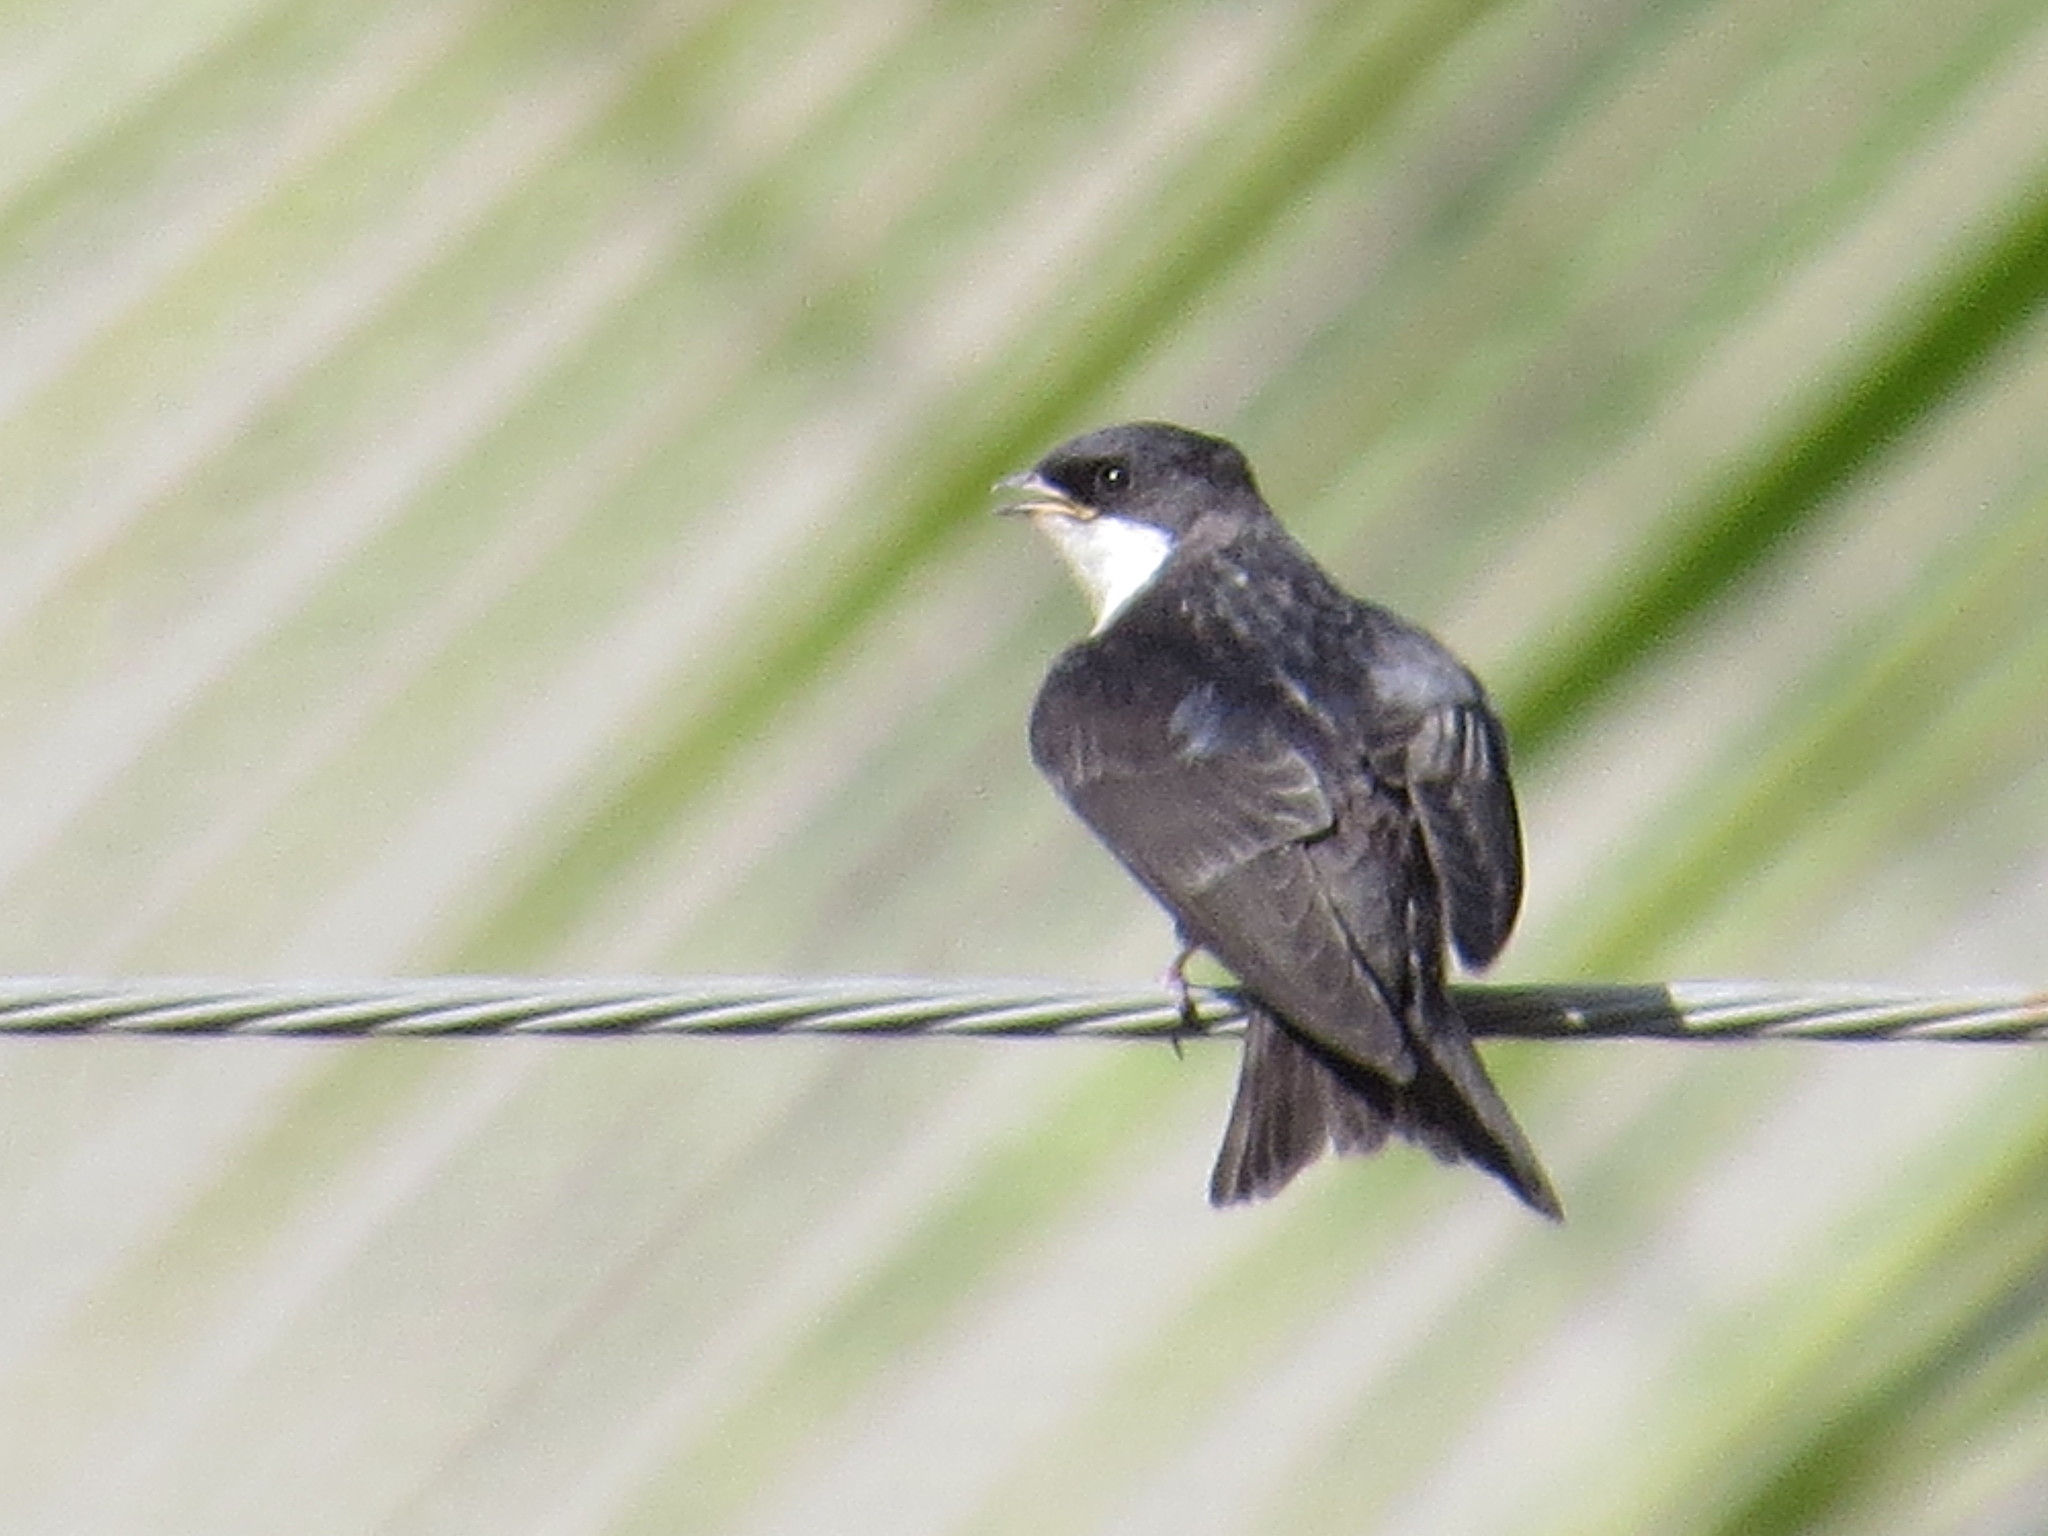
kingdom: Animalia
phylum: Chordata
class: Aves
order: Passeriformes
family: Hirundinidae
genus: Notiochelidon
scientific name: Notiochelidon cyanoleuca
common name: Blue-and-white swallow
